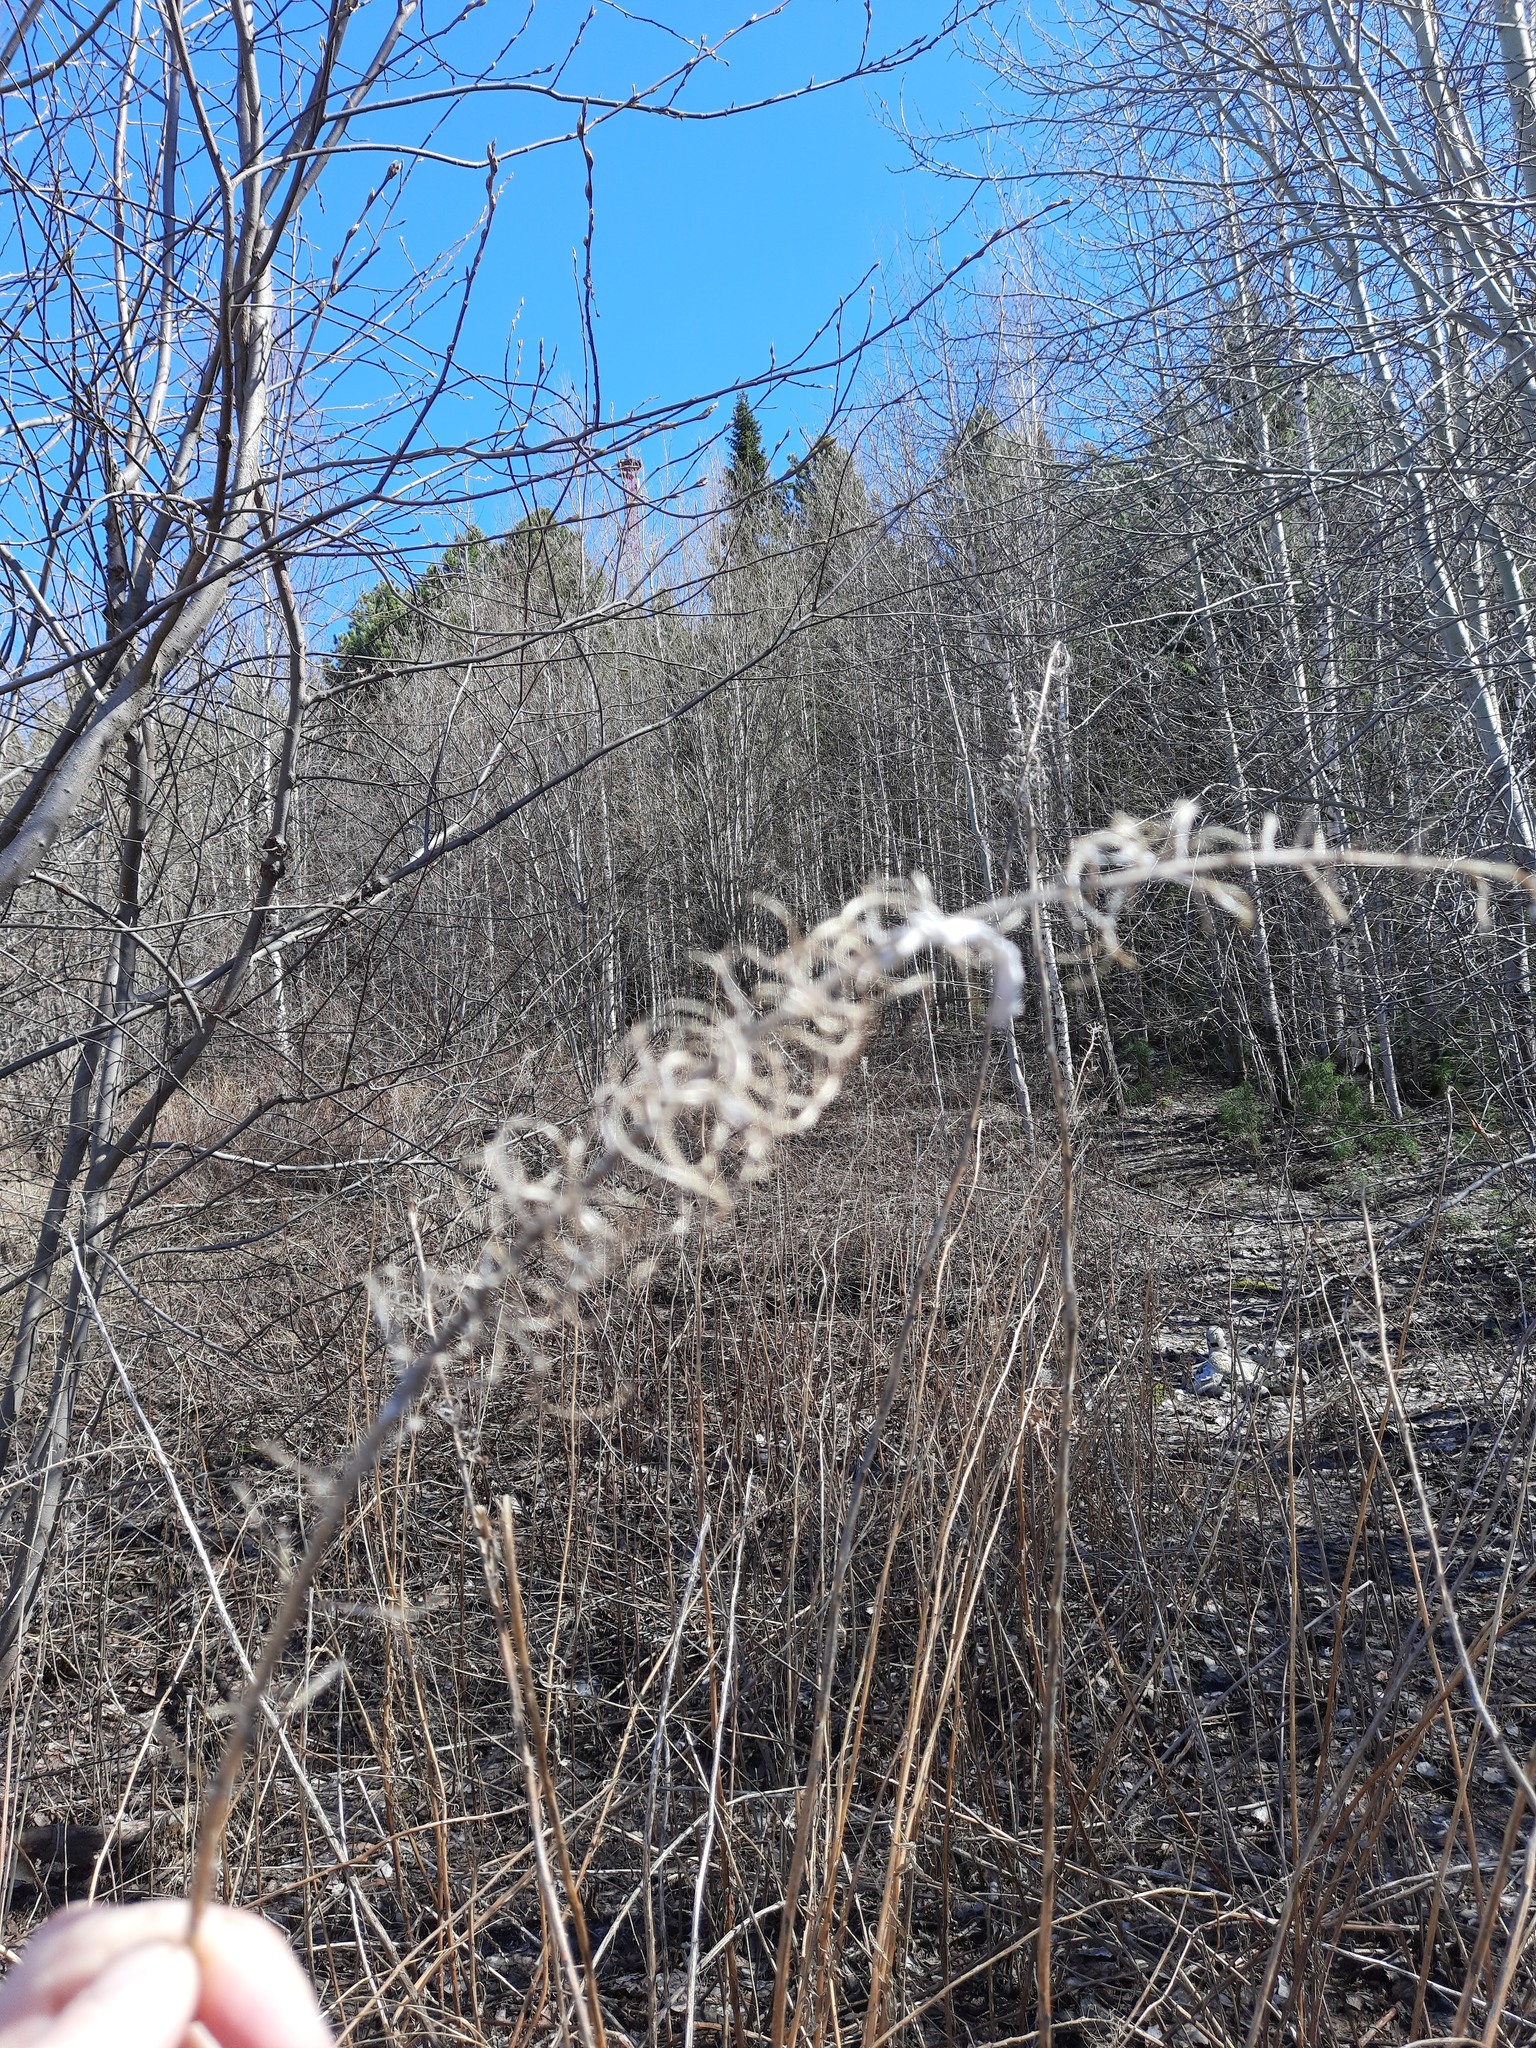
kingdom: Plantae
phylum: Tracheophyta
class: Magnoliopsida
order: Myrtales
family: Onagraceae
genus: Chamaenerion
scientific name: Chamaenerion angustifolium
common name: Fireweed
